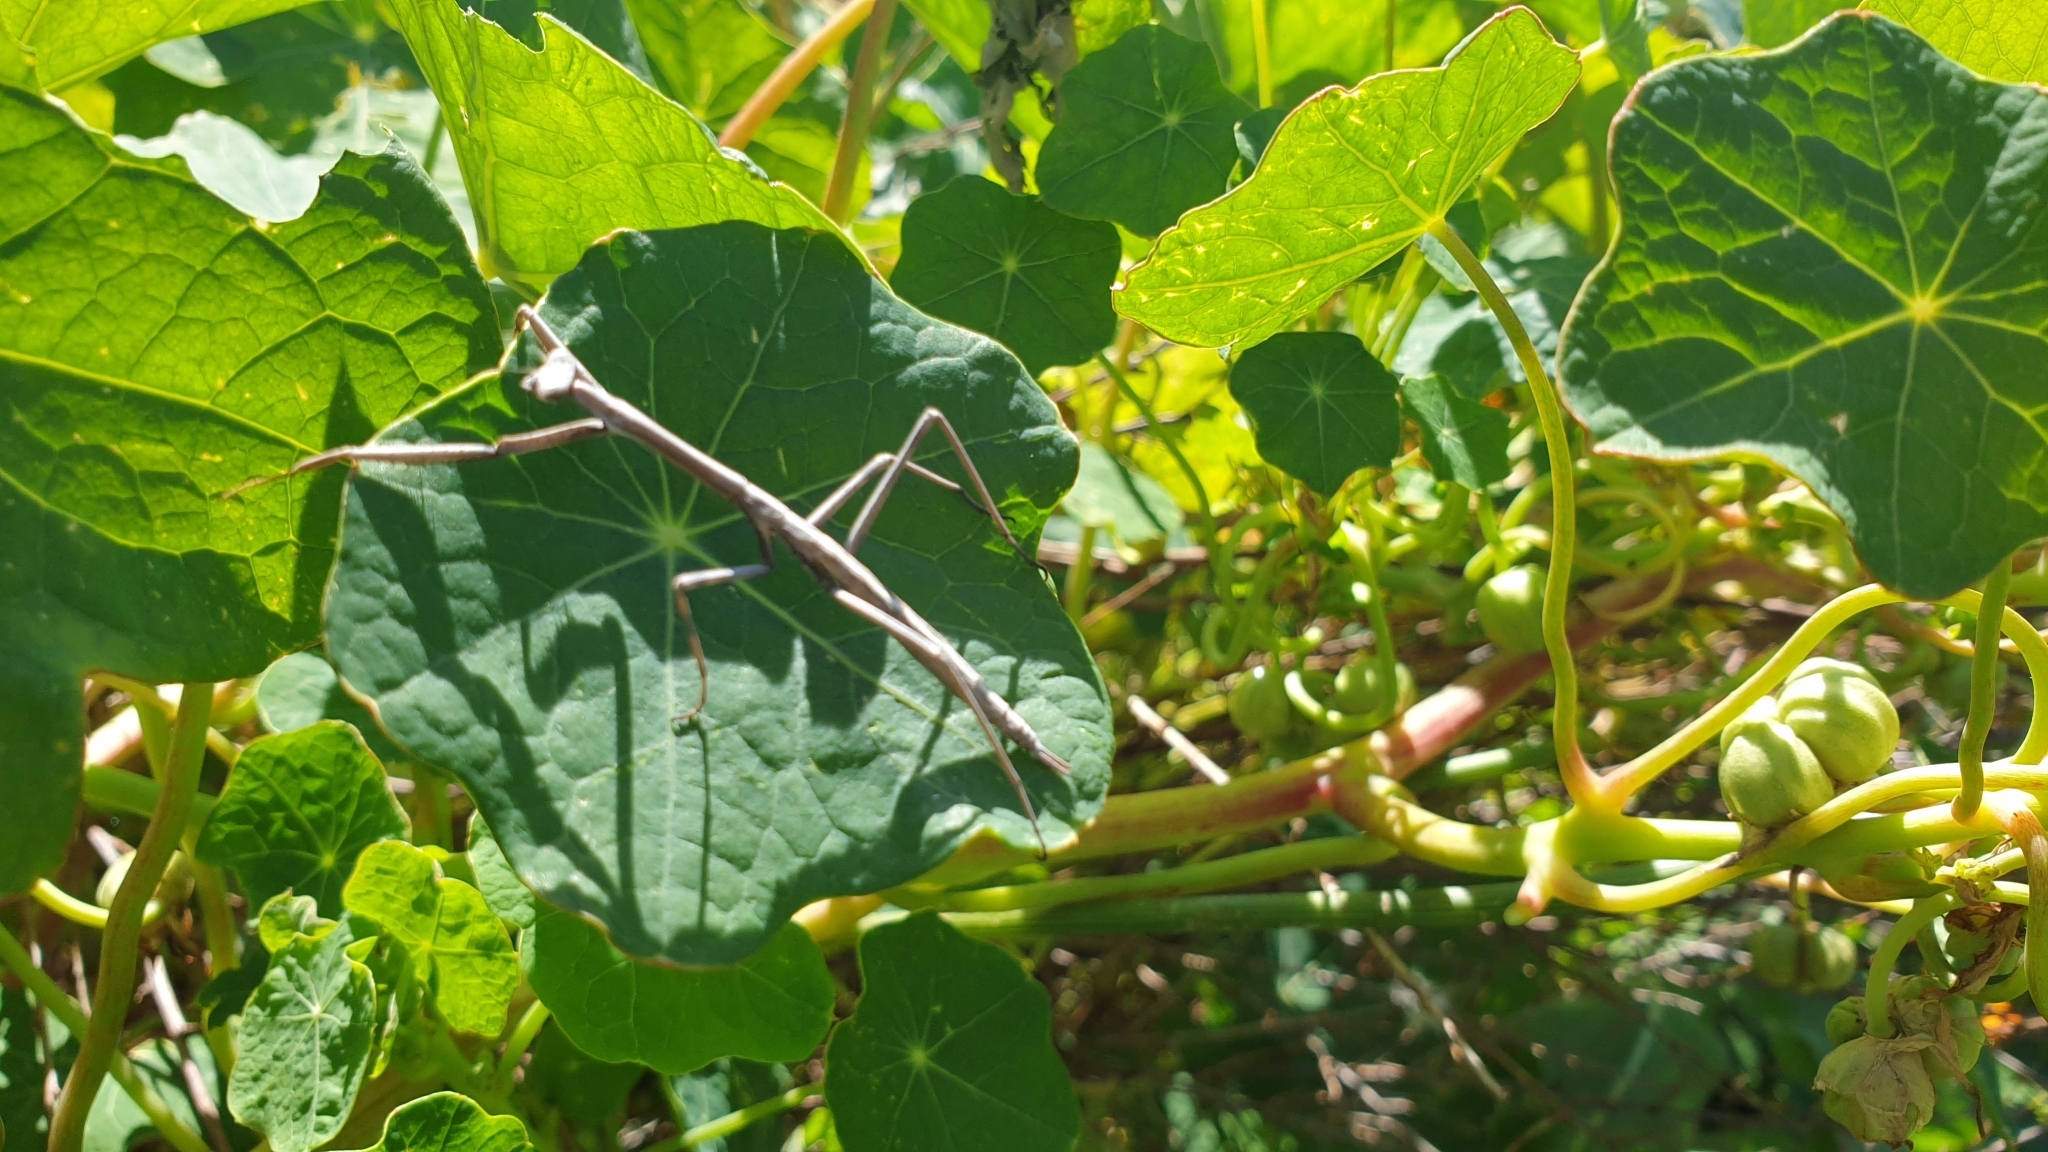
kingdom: Animalia
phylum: Arthropoda
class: Insecta
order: Mantodea
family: Mantidae
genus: Archimantis
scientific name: Archimantis sobrina
